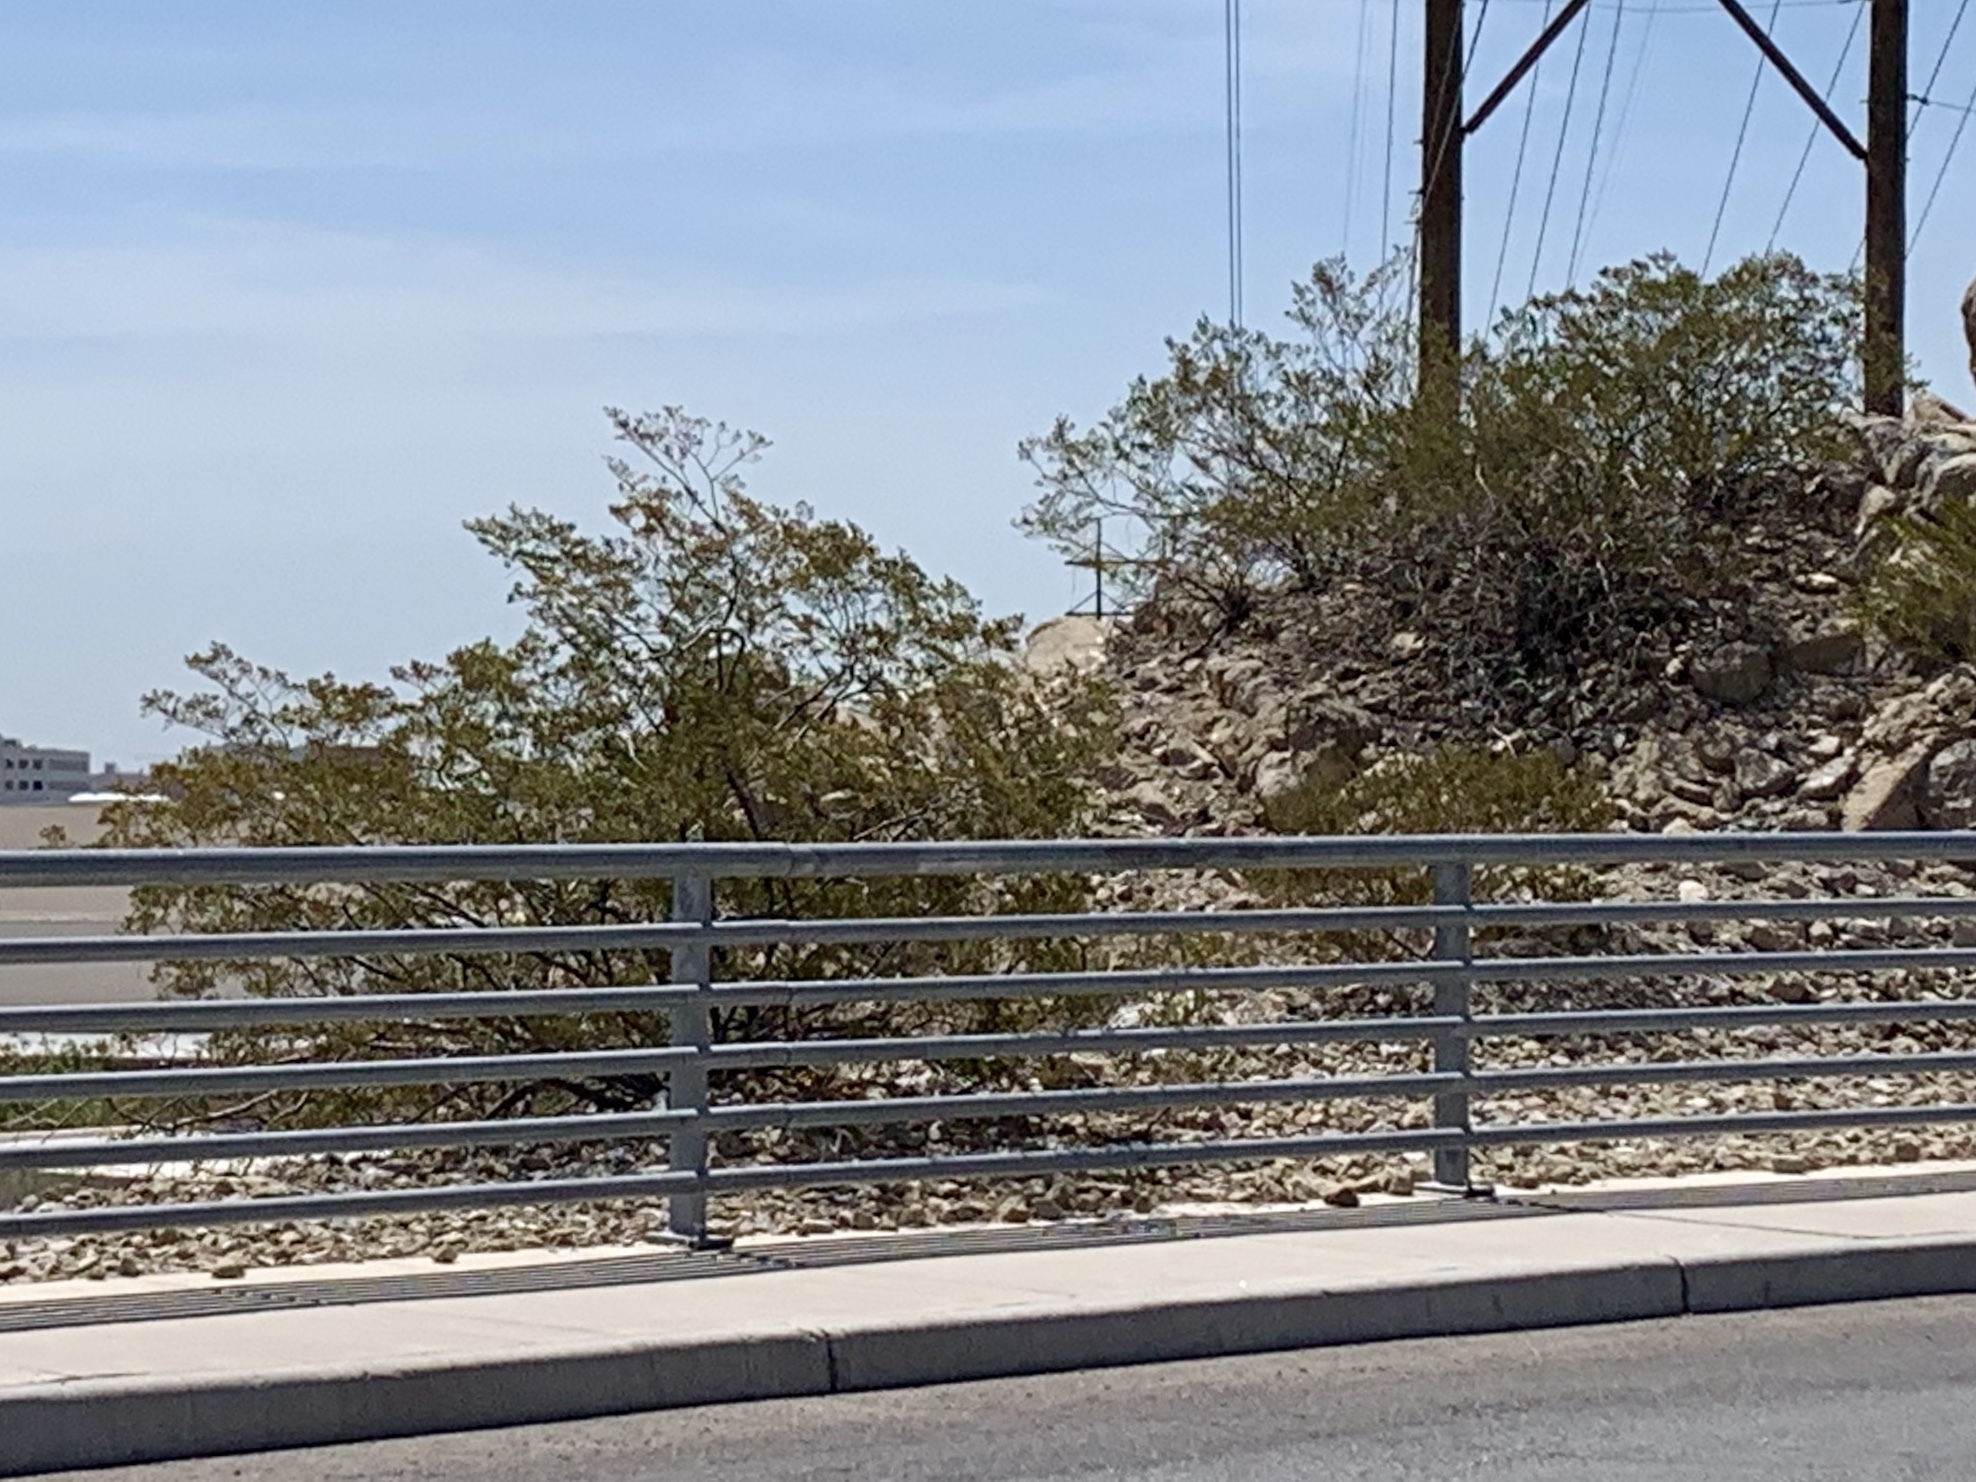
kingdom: Plantae
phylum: Tracheophyta
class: Magnoliopsida
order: Zygophyllales
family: Zygophyllaceae
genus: Larrea
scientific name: Larrea tridentata
